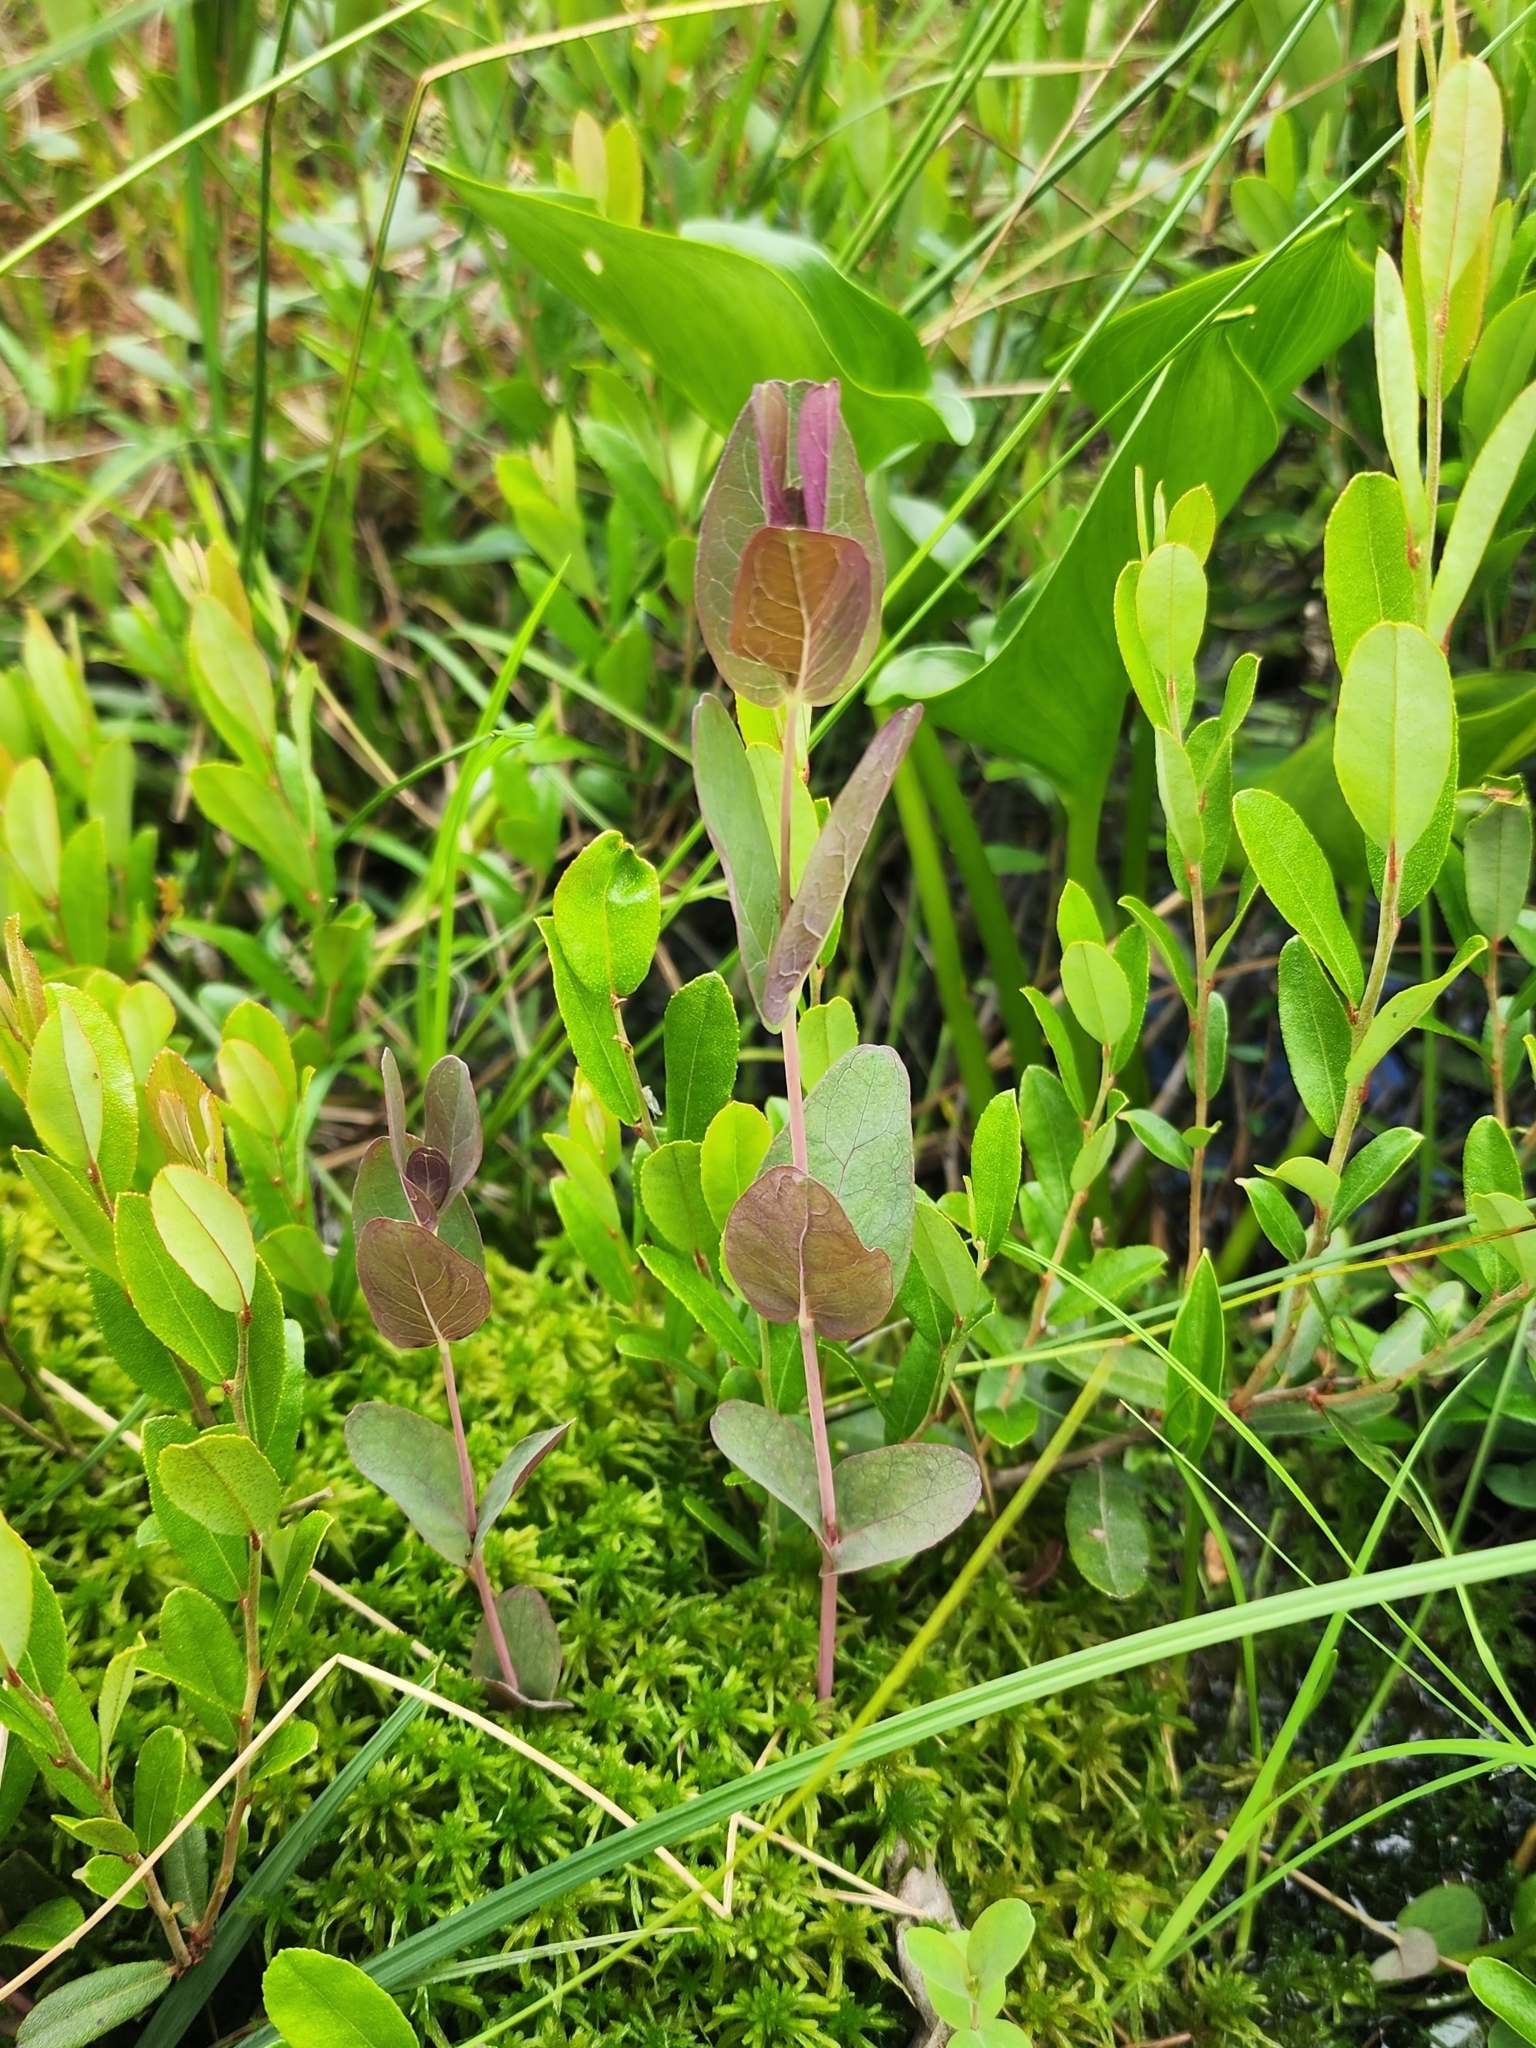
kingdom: Plantae
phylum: Tracheophyta
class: Magnoliopsida
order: Malpighiales
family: Hypericaceae
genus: Triadenum
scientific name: Triadenum fraseri
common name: Fraser's marsh st. johnswort
